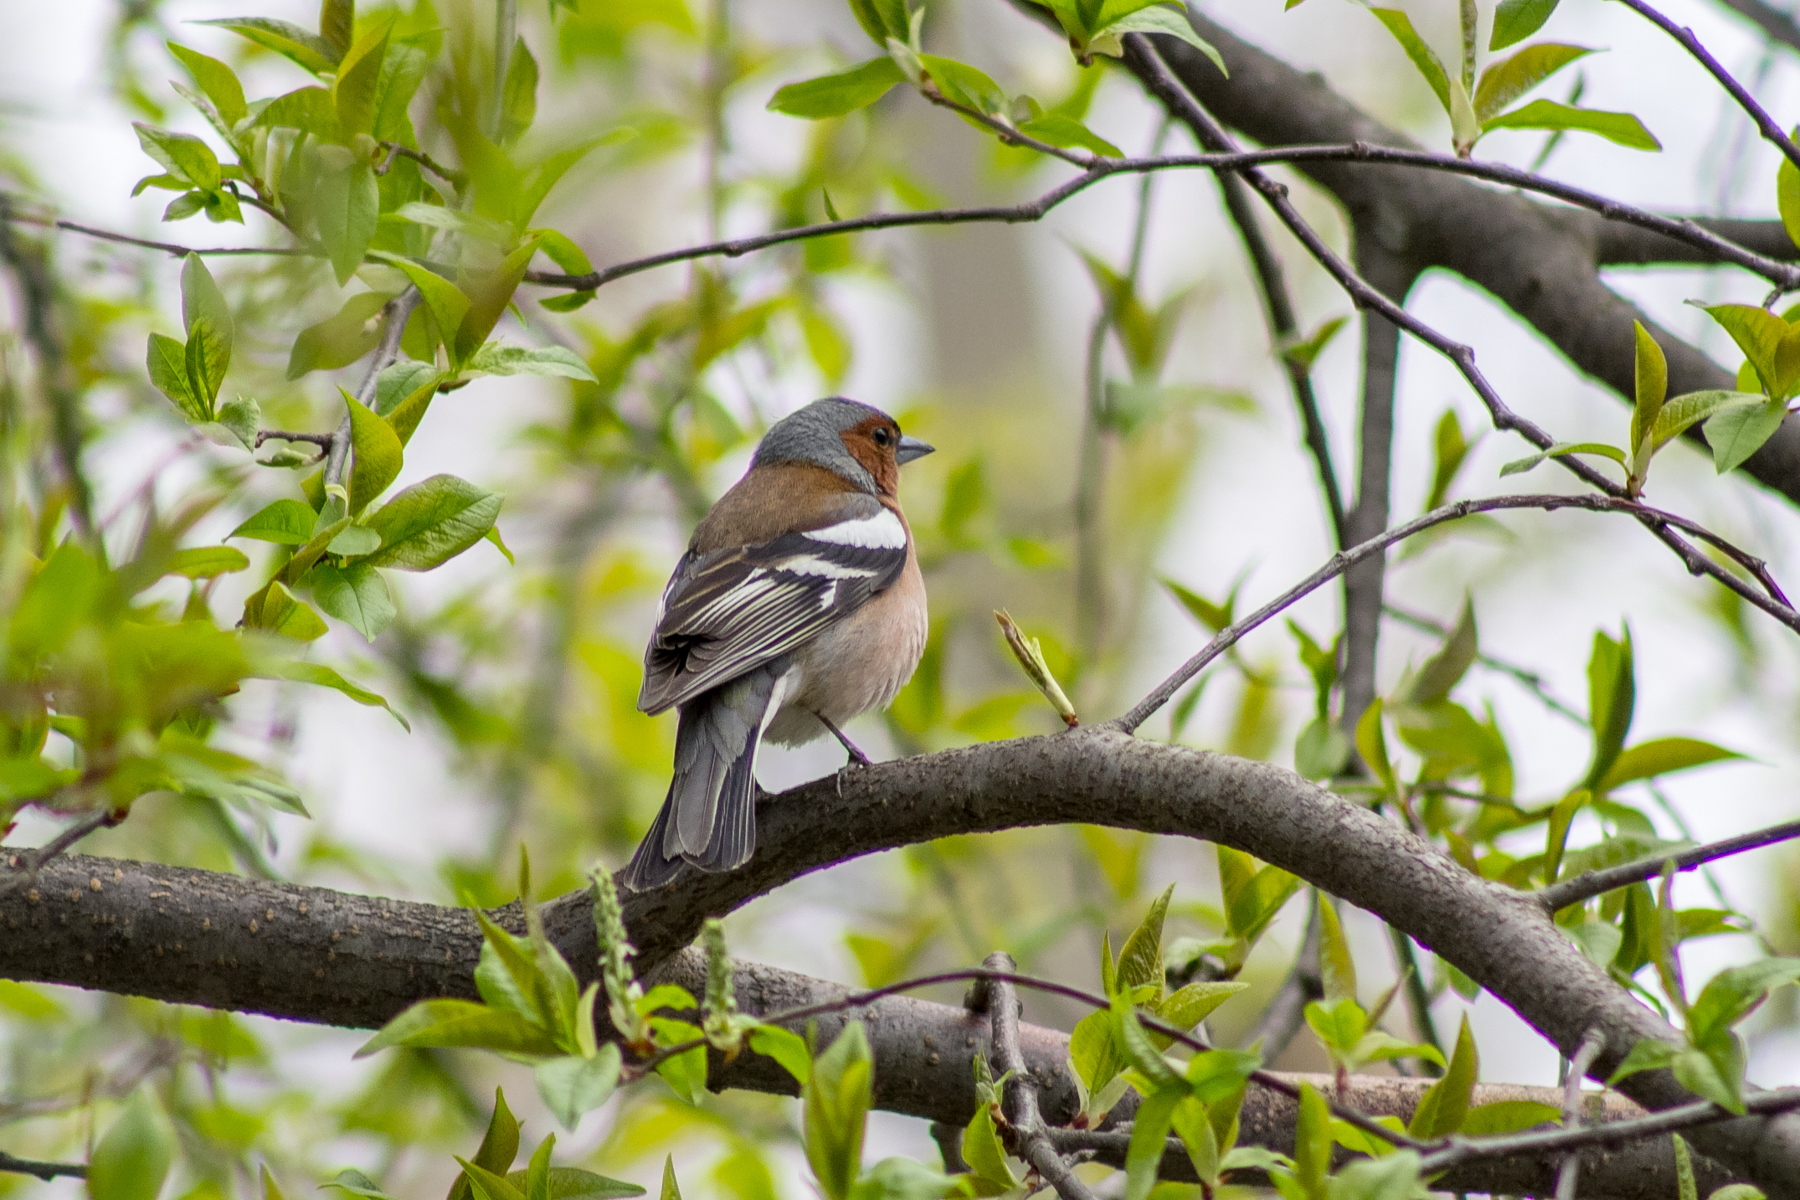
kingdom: Animalia
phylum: Chordata
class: Aves
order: Passeriformes
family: Fringillidae
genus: Fringilla
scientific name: Fringilla coelebs
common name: Common chaffinch
